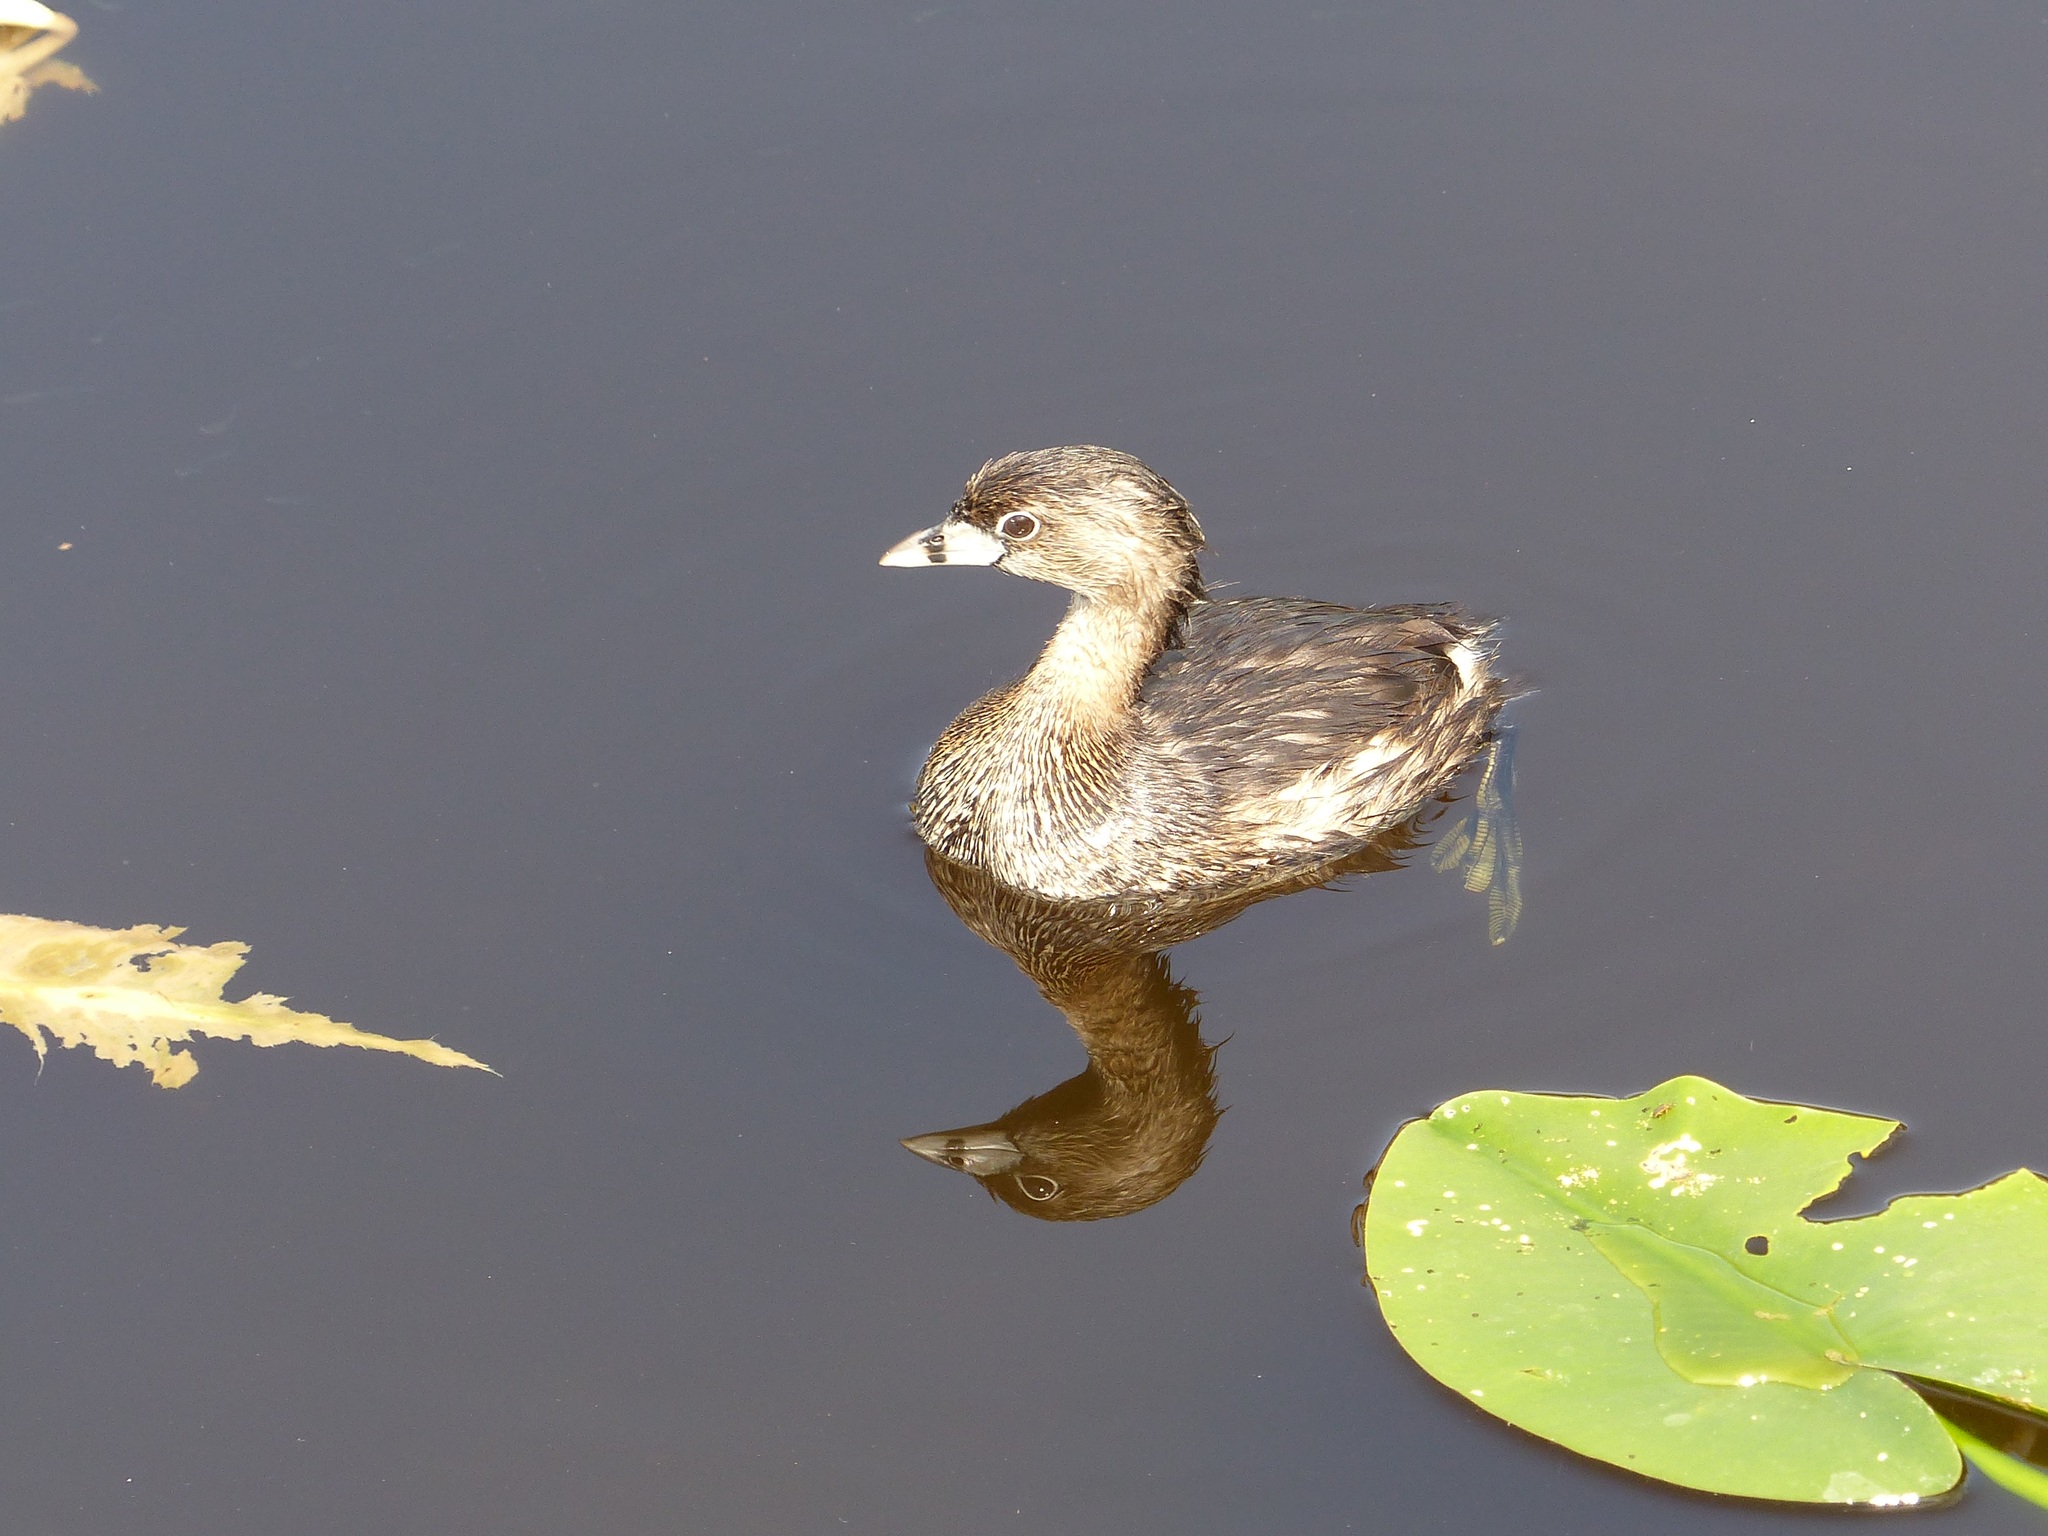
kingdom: Animalia
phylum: Chordata
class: Aves
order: Podicipediformes
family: Podicipedidae
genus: Podilymbus
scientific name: Podilymbus podiceps
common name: Pied-billed grebe
